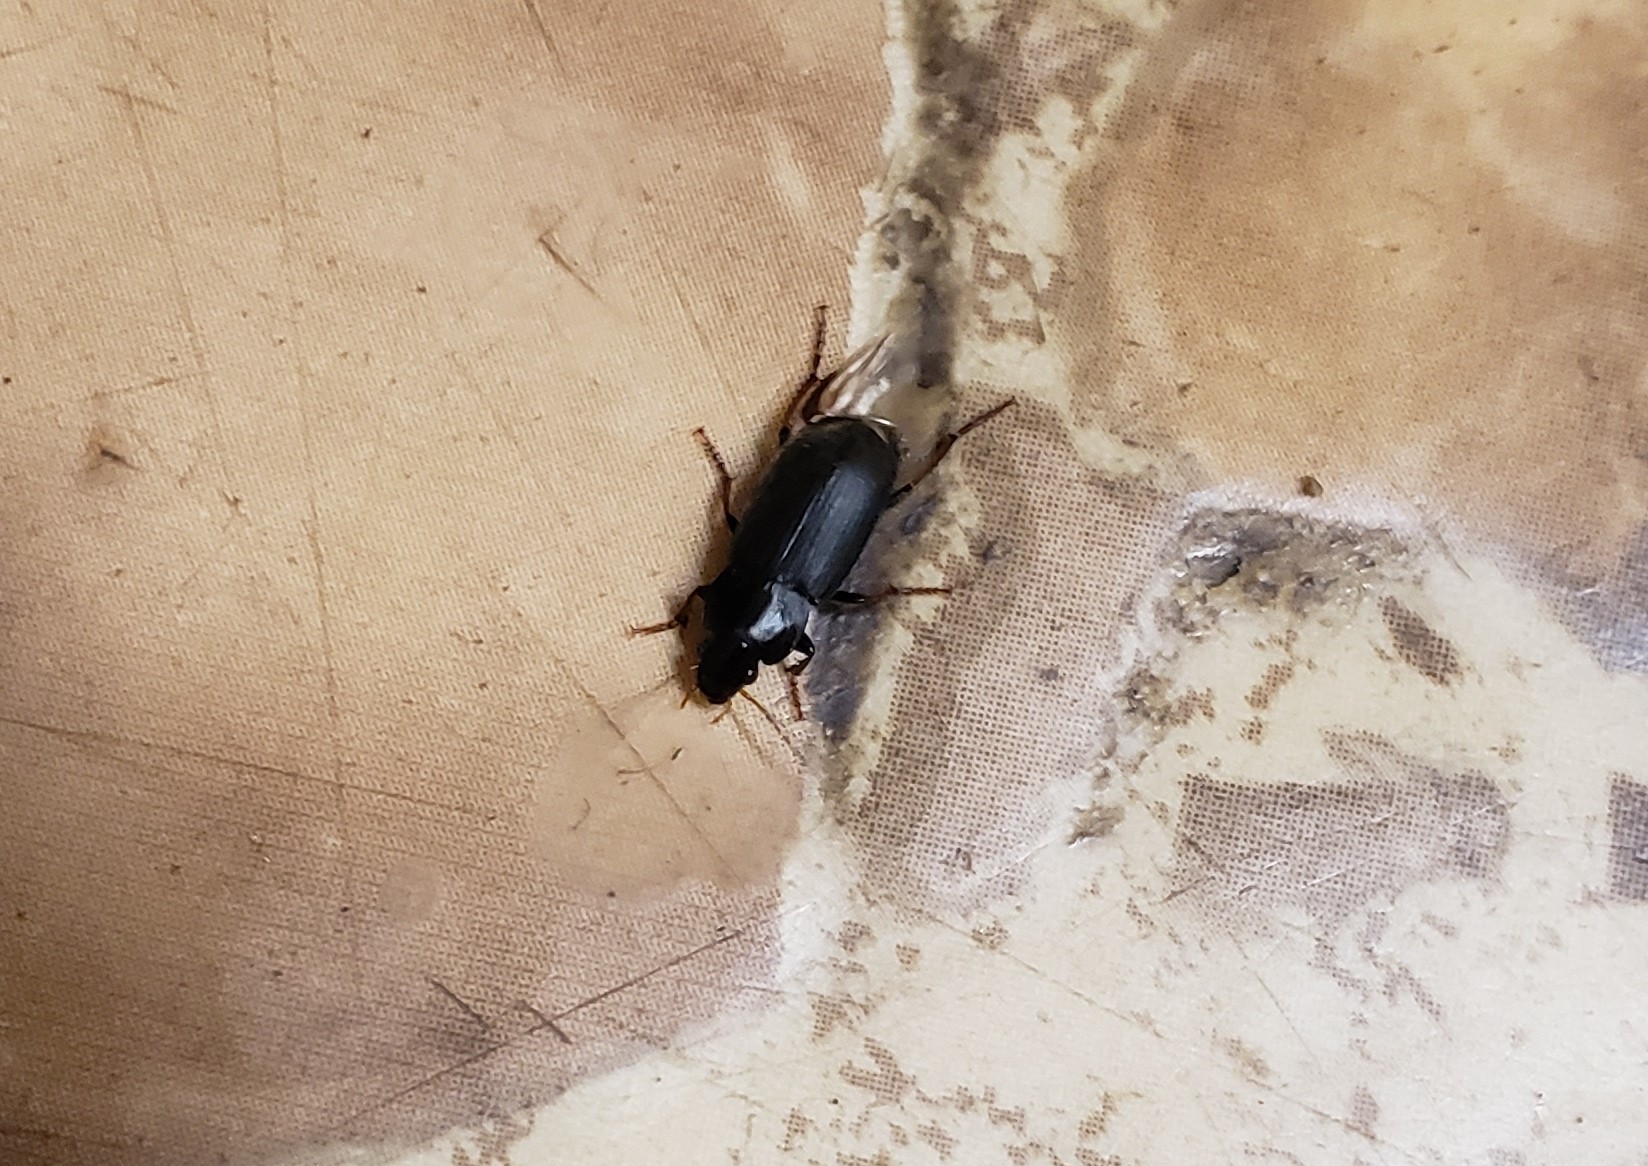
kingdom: Animalia
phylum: Arthropoda
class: Insecta
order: Coleoptera
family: Carabidae
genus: Amphasia
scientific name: Amphasia sericea
